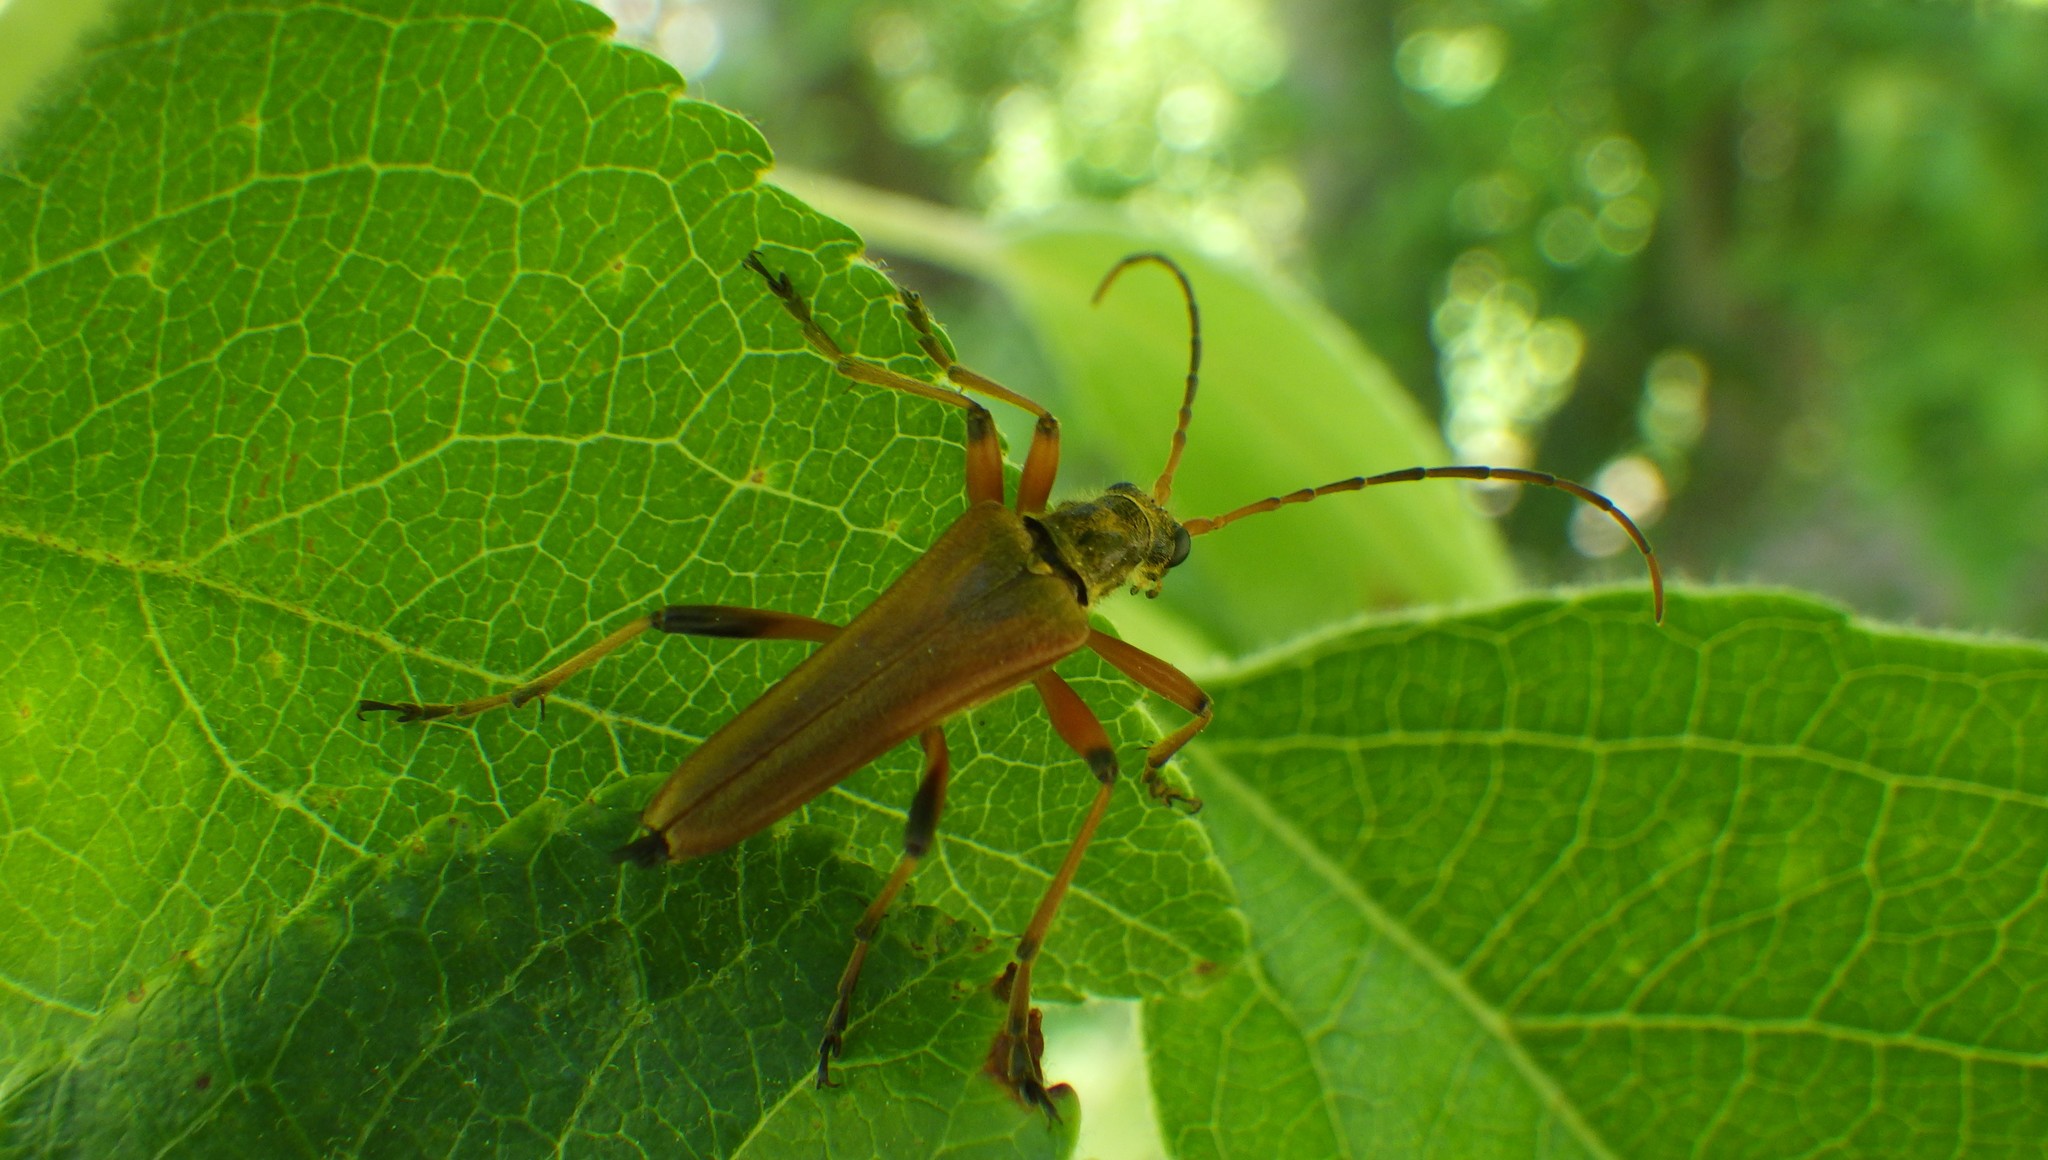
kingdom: Animalia
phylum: Arthropoda
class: Insecta
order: Coleoptera
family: Cerambycidae
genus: Stenocorus
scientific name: Stenocorus meridianus
